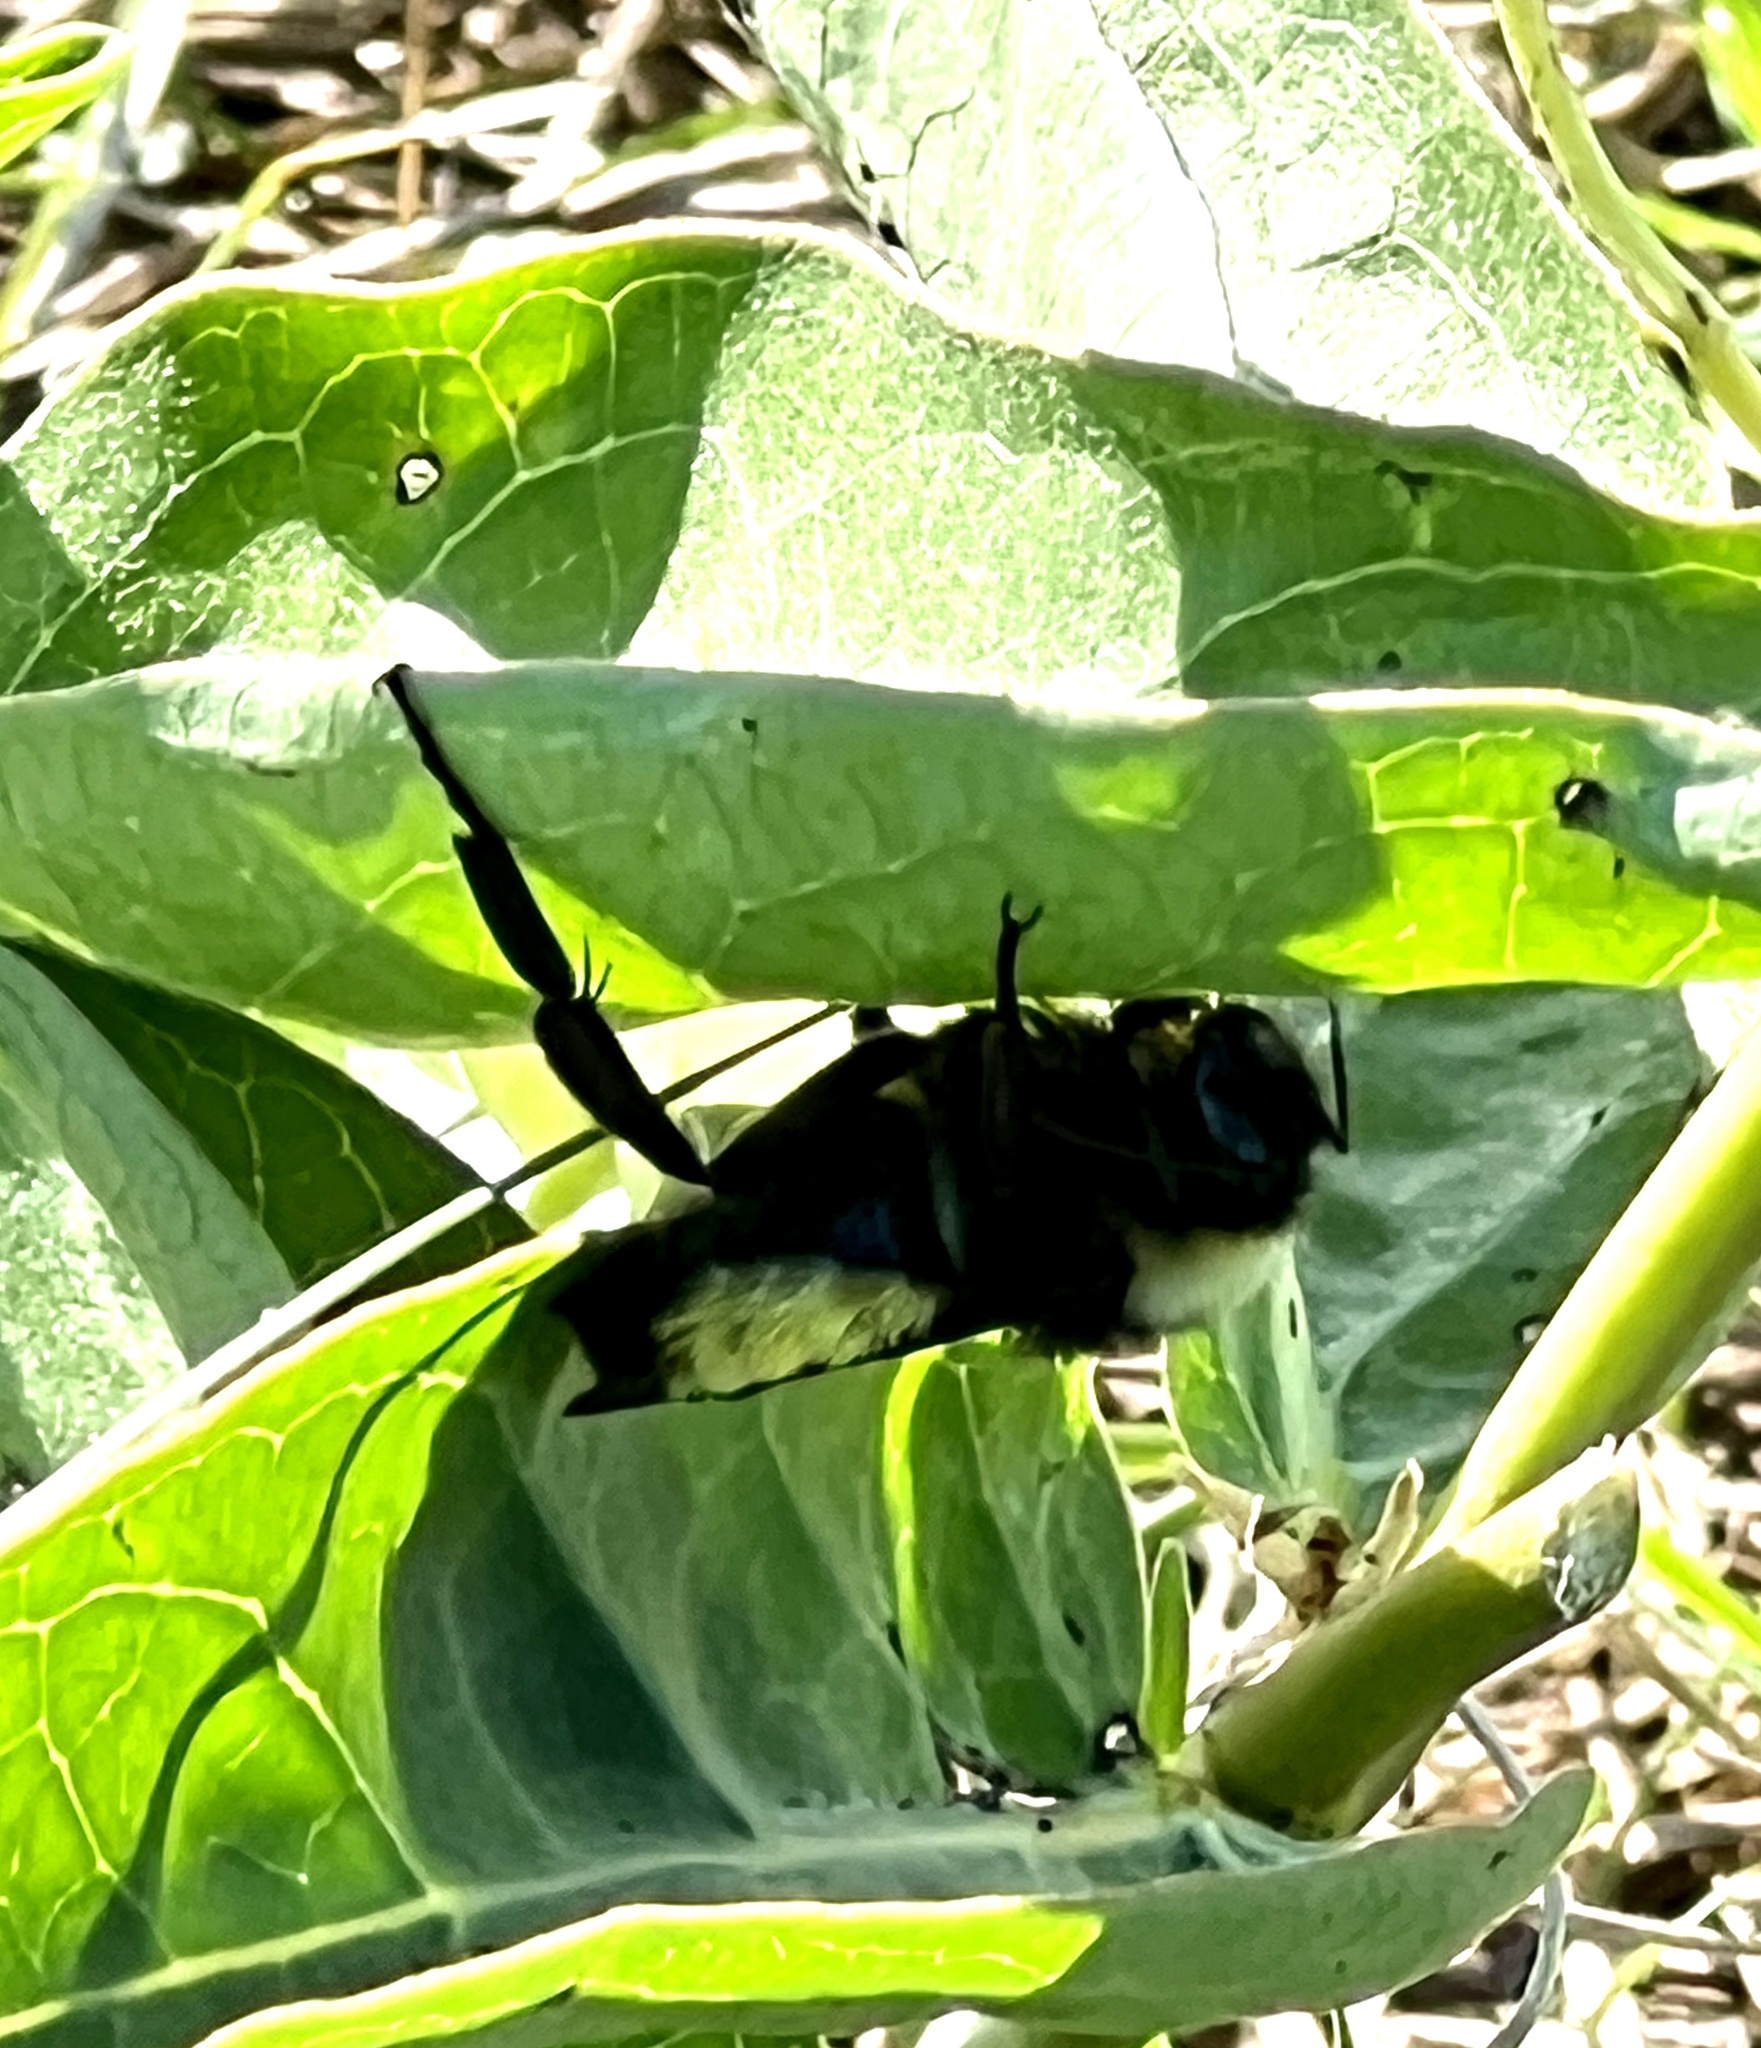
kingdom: Animalia
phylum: Arthropoda
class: Insecta
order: Hymenoptera
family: Apidae
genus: Bombus
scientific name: Bombus pensylvanicus
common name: Bumble bee
